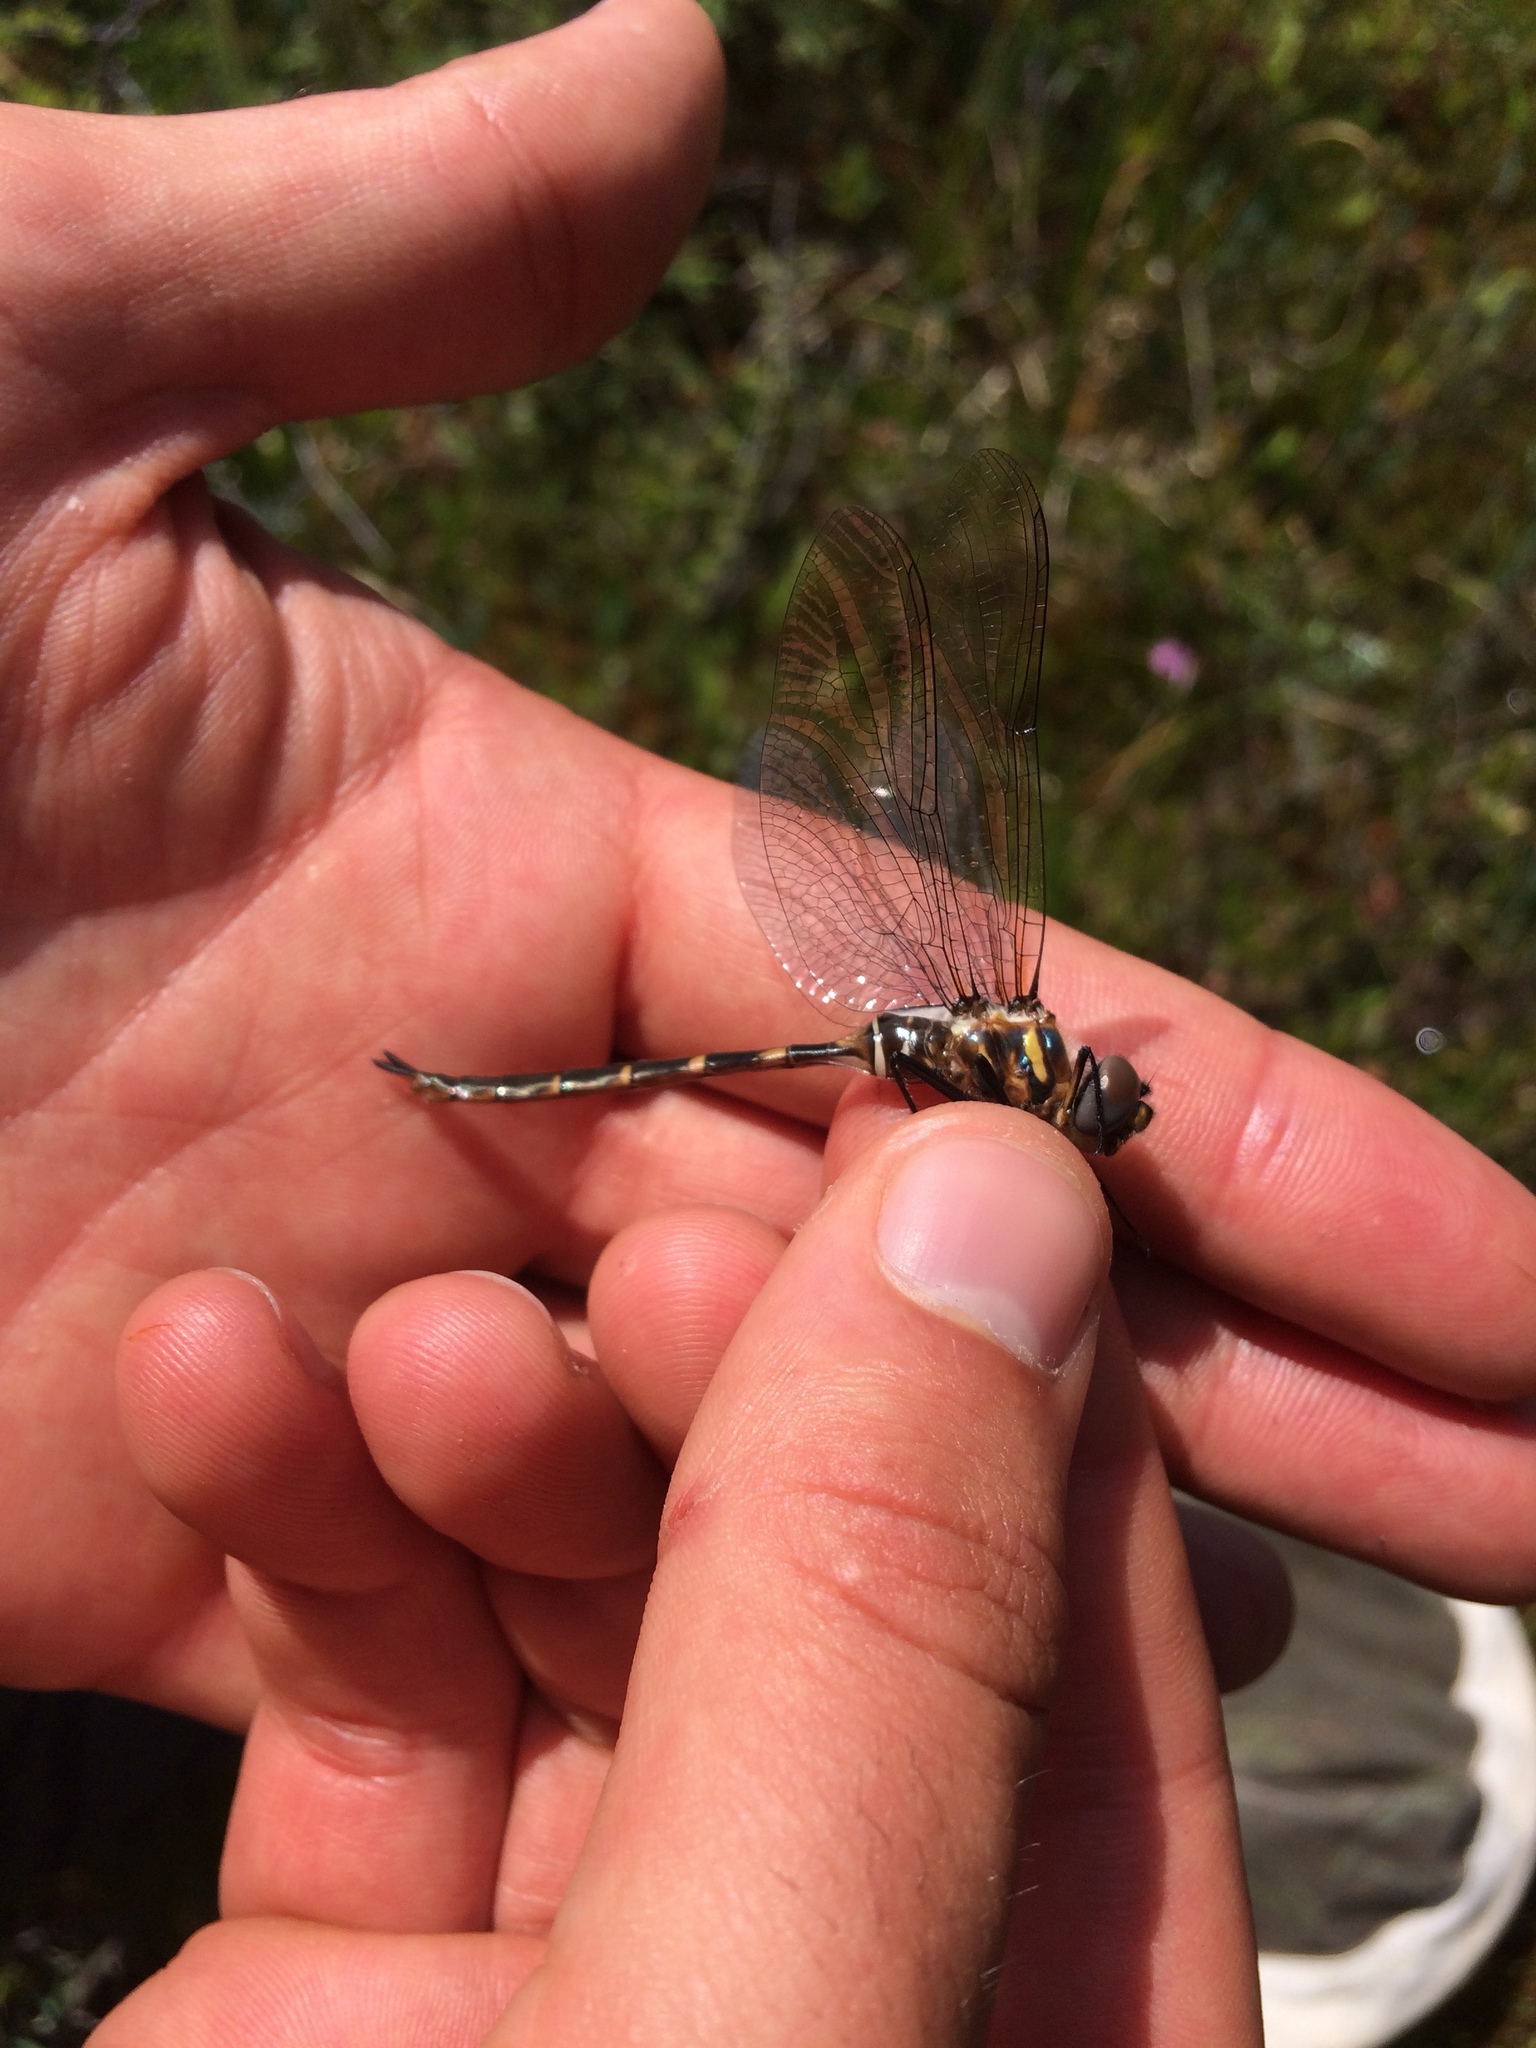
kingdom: Animalia
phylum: Arthropoda
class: Insecta
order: Odonata
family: Corduliidae
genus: Somatochlora
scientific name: Somatochlora incurvata
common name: Incurvate emerald
